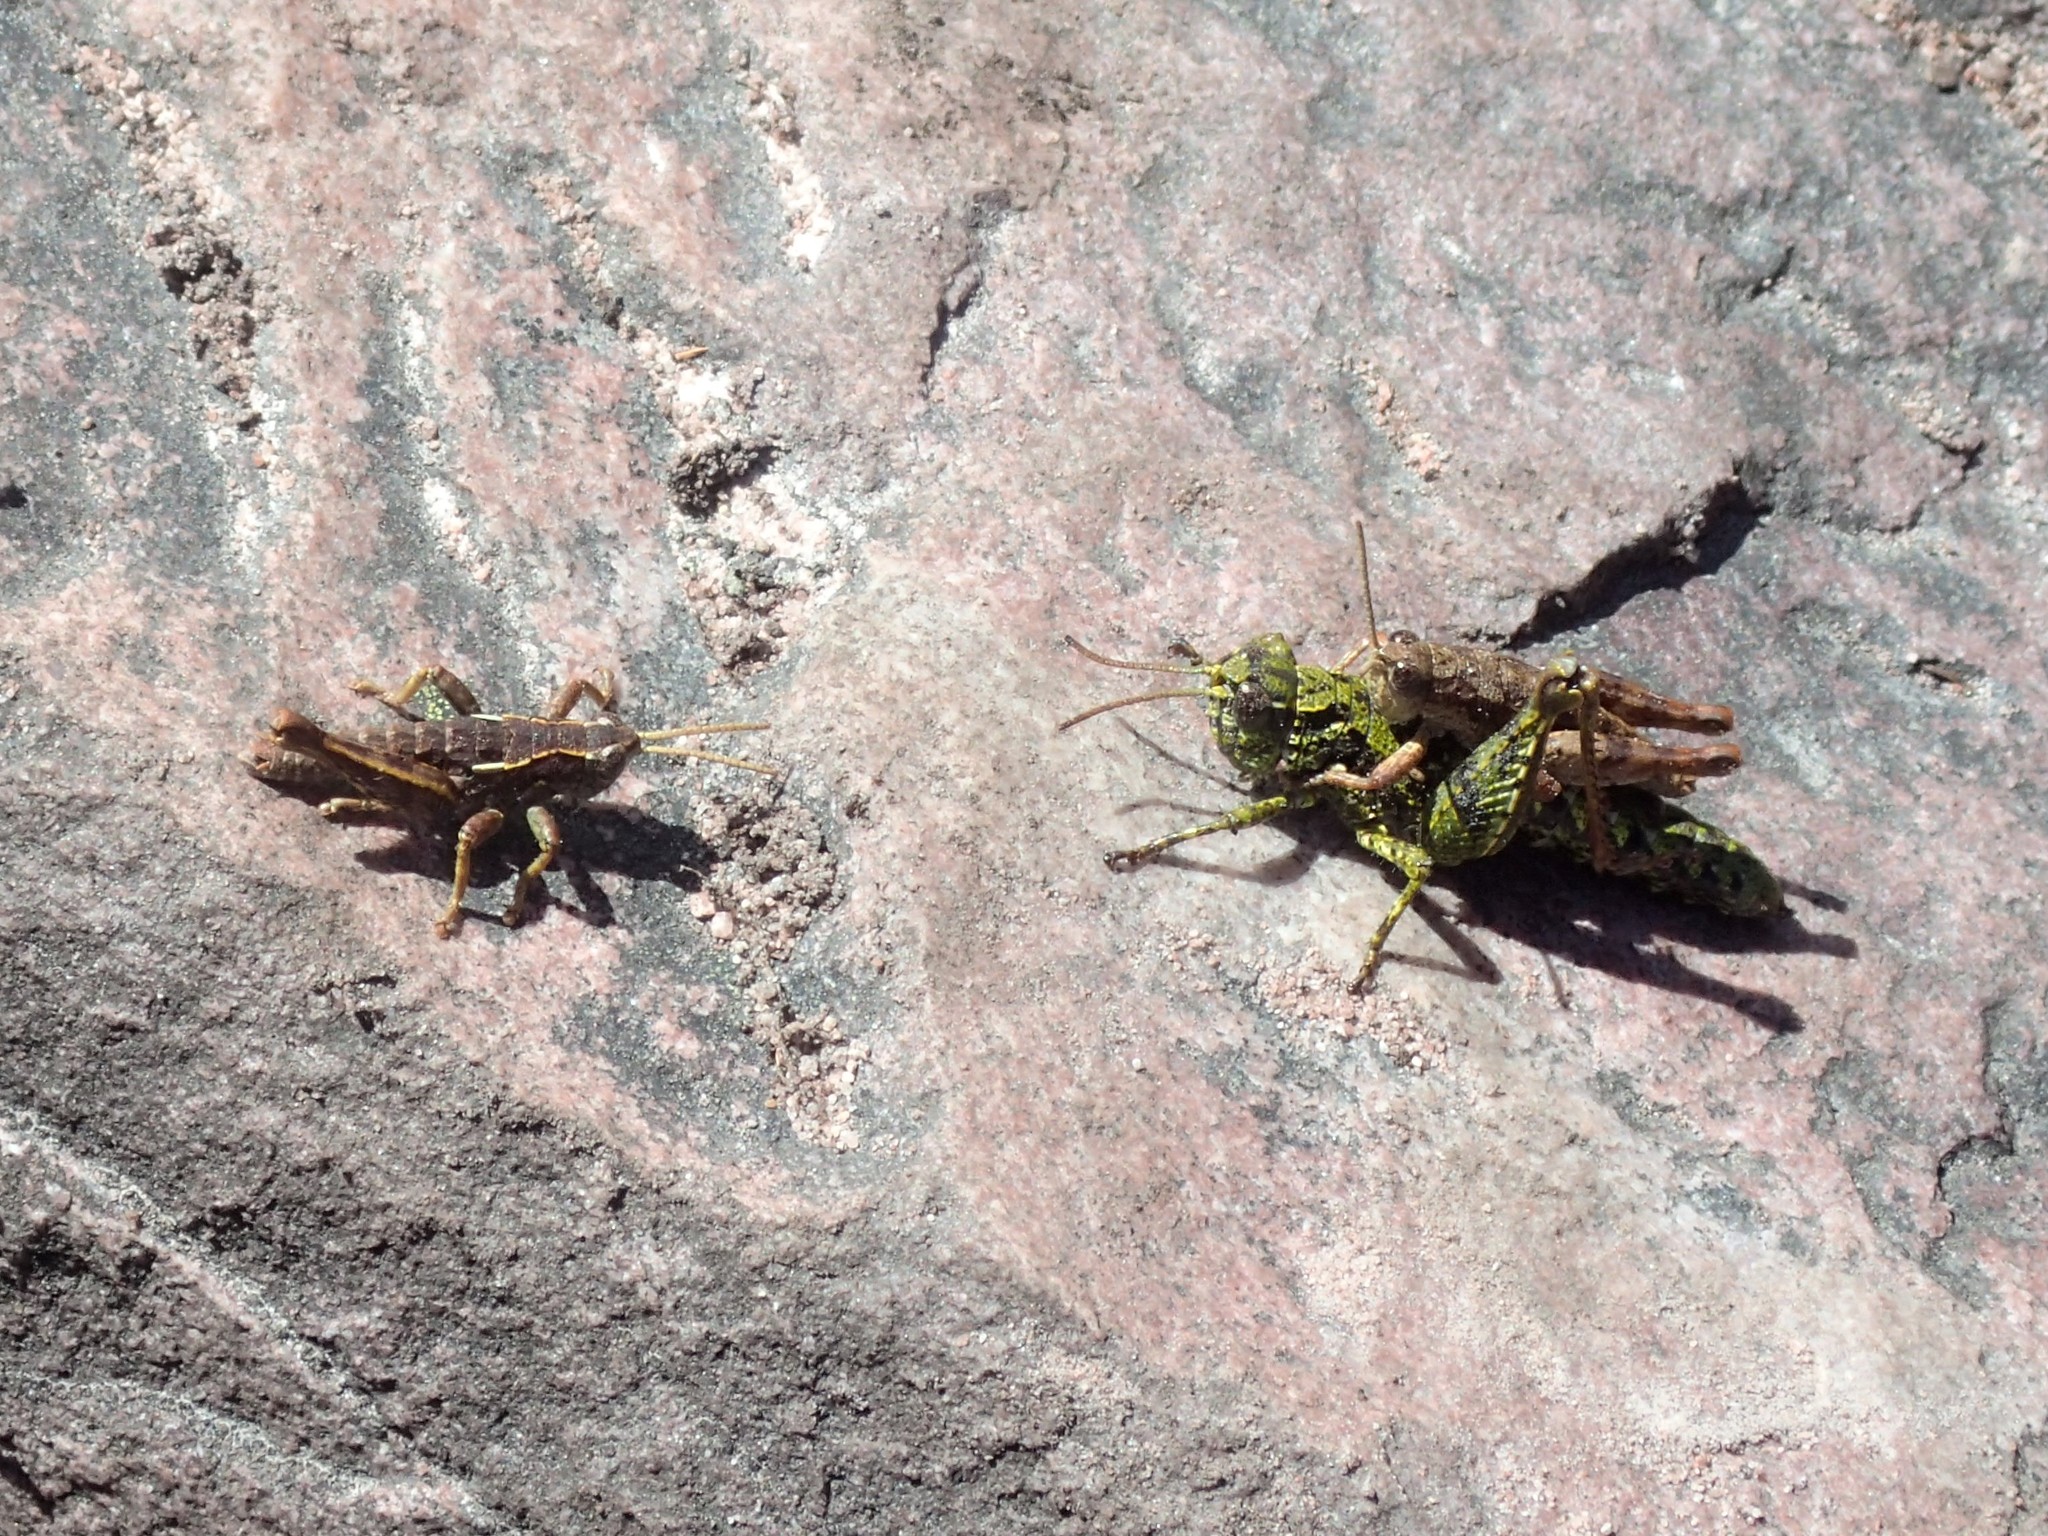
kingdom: Animalia
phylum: Arthropoda
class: Insecta
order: Orthoptera
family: Acrididae
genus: Tasmaniacris
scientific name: Tasmaniacris tasmaniensis
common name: Tasmanian grasshopper
